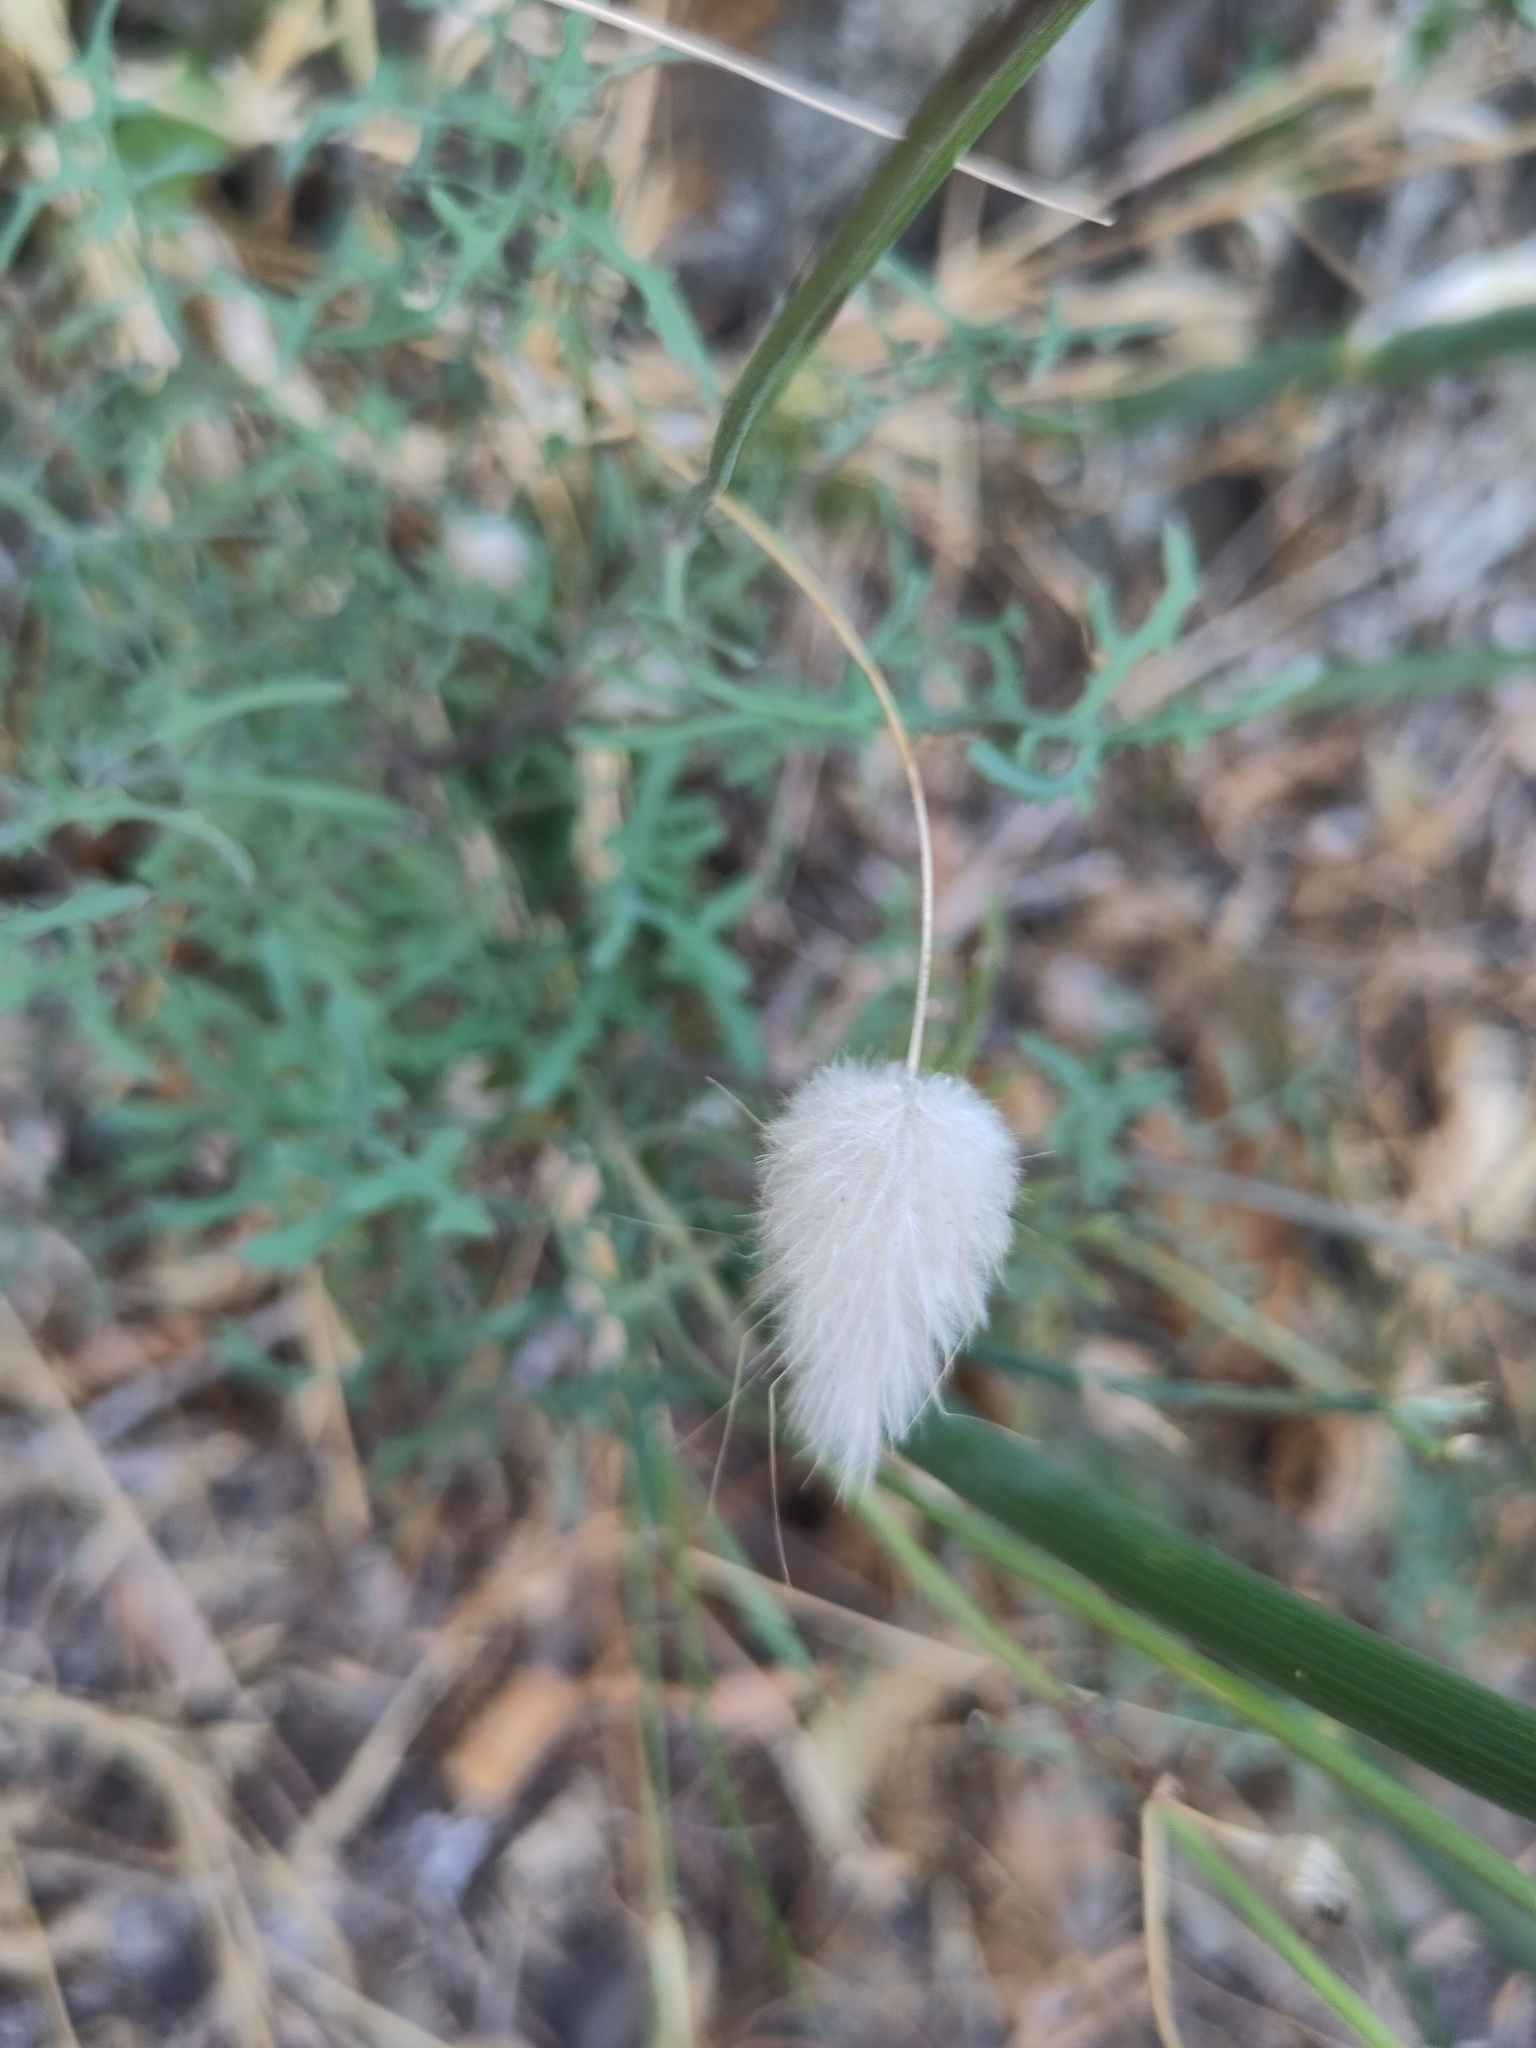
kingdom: Plantae
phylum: Tracheophyta
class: Liliopsida
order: Poales
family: Poaceae
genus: Lagurus
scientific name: Lagurus ovatus
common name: Hare's-tail
